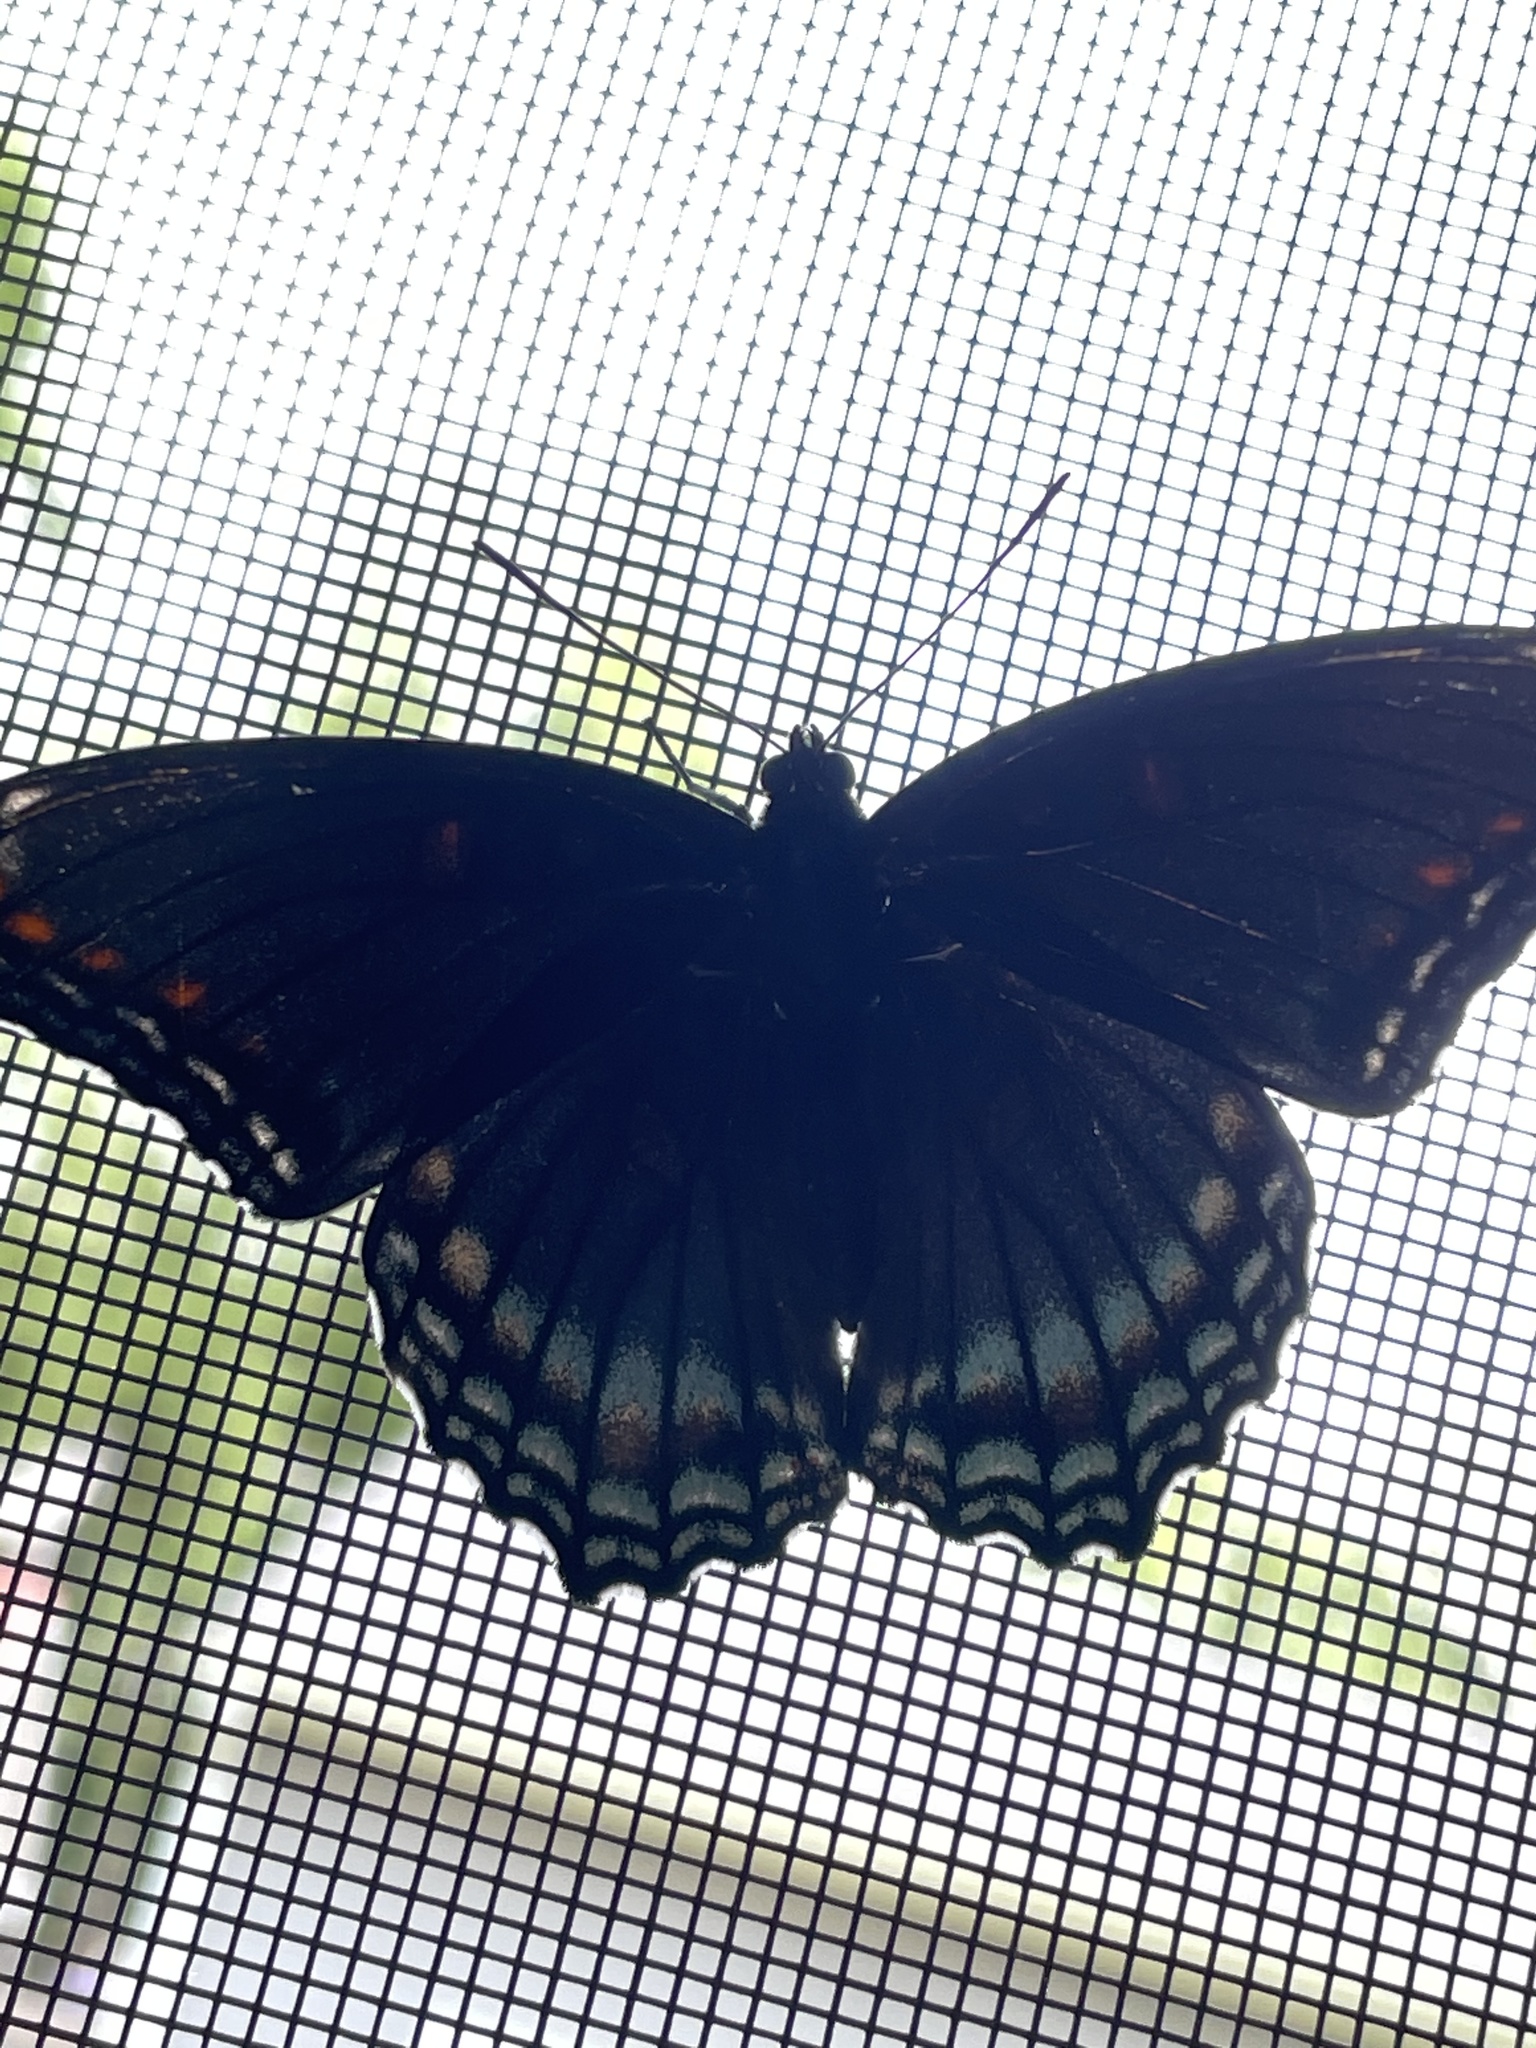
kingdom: Animalia
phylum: Arthropoda
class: Insecta
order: Lepidoptera
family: Nymphalidae
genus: Limenitis
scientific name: Limenitis astyanax
